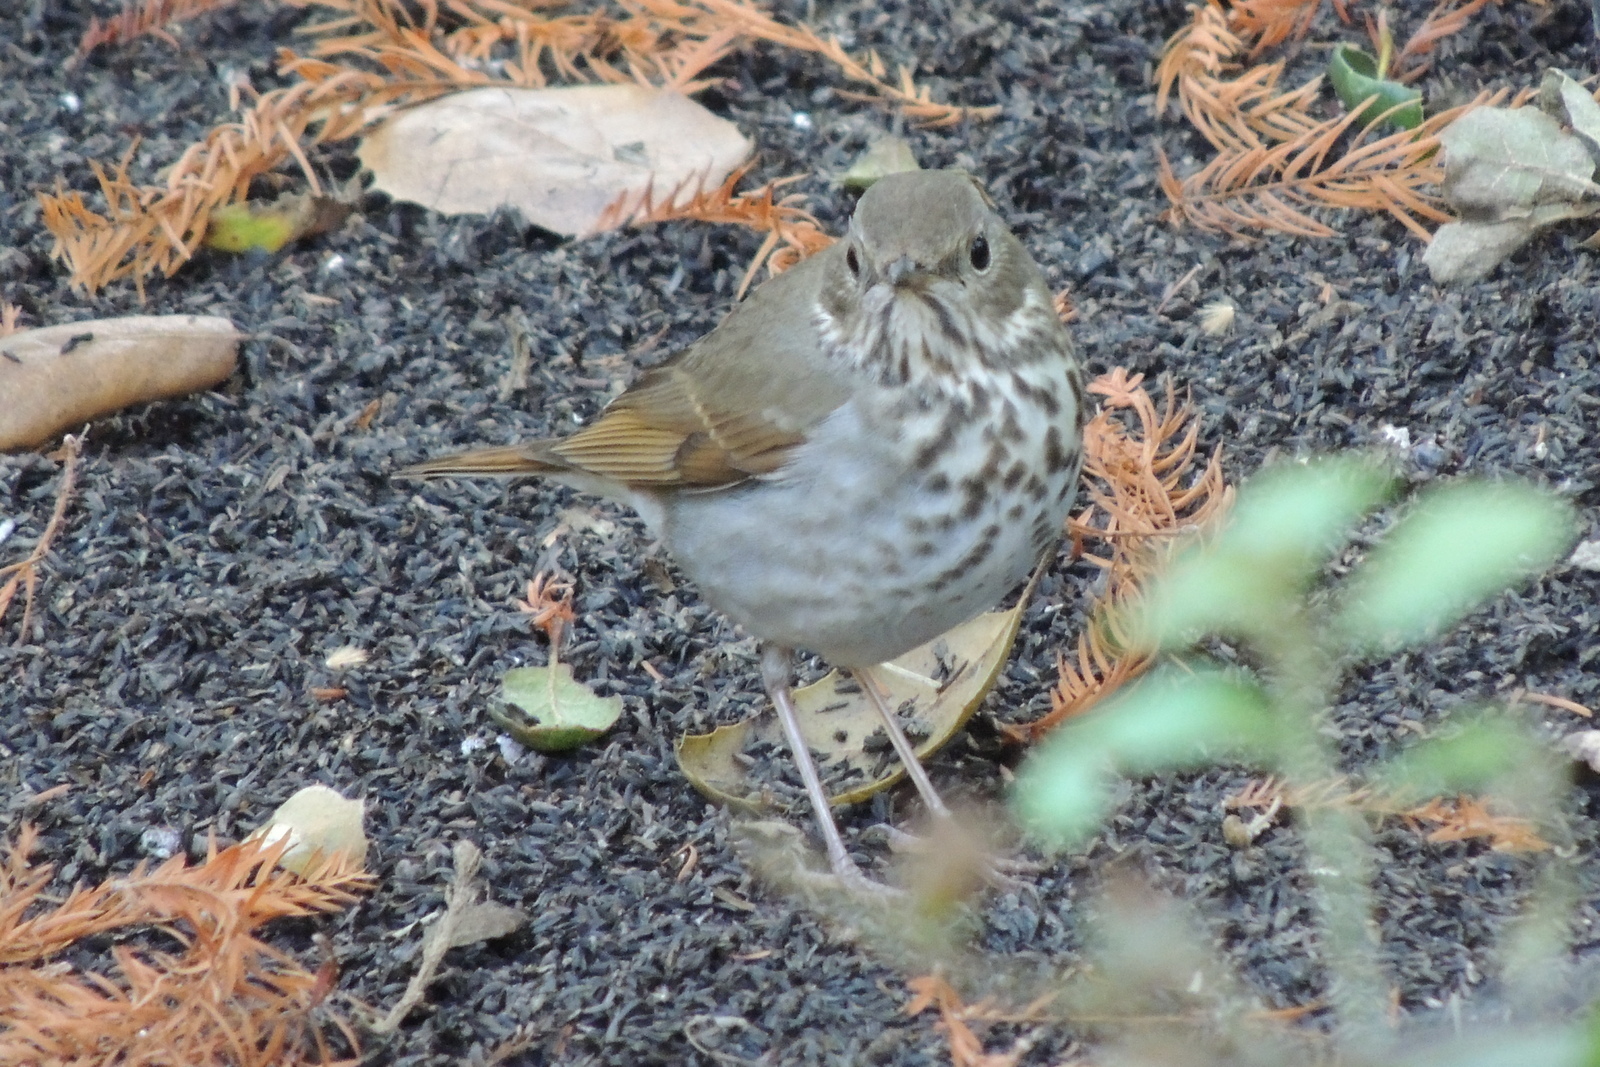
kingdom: Animalia
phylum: Chordata
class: Aves
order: Passeriformes
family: Turdidae
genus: Catharus
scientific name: Catharus guttatus
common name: Hermit thrush
